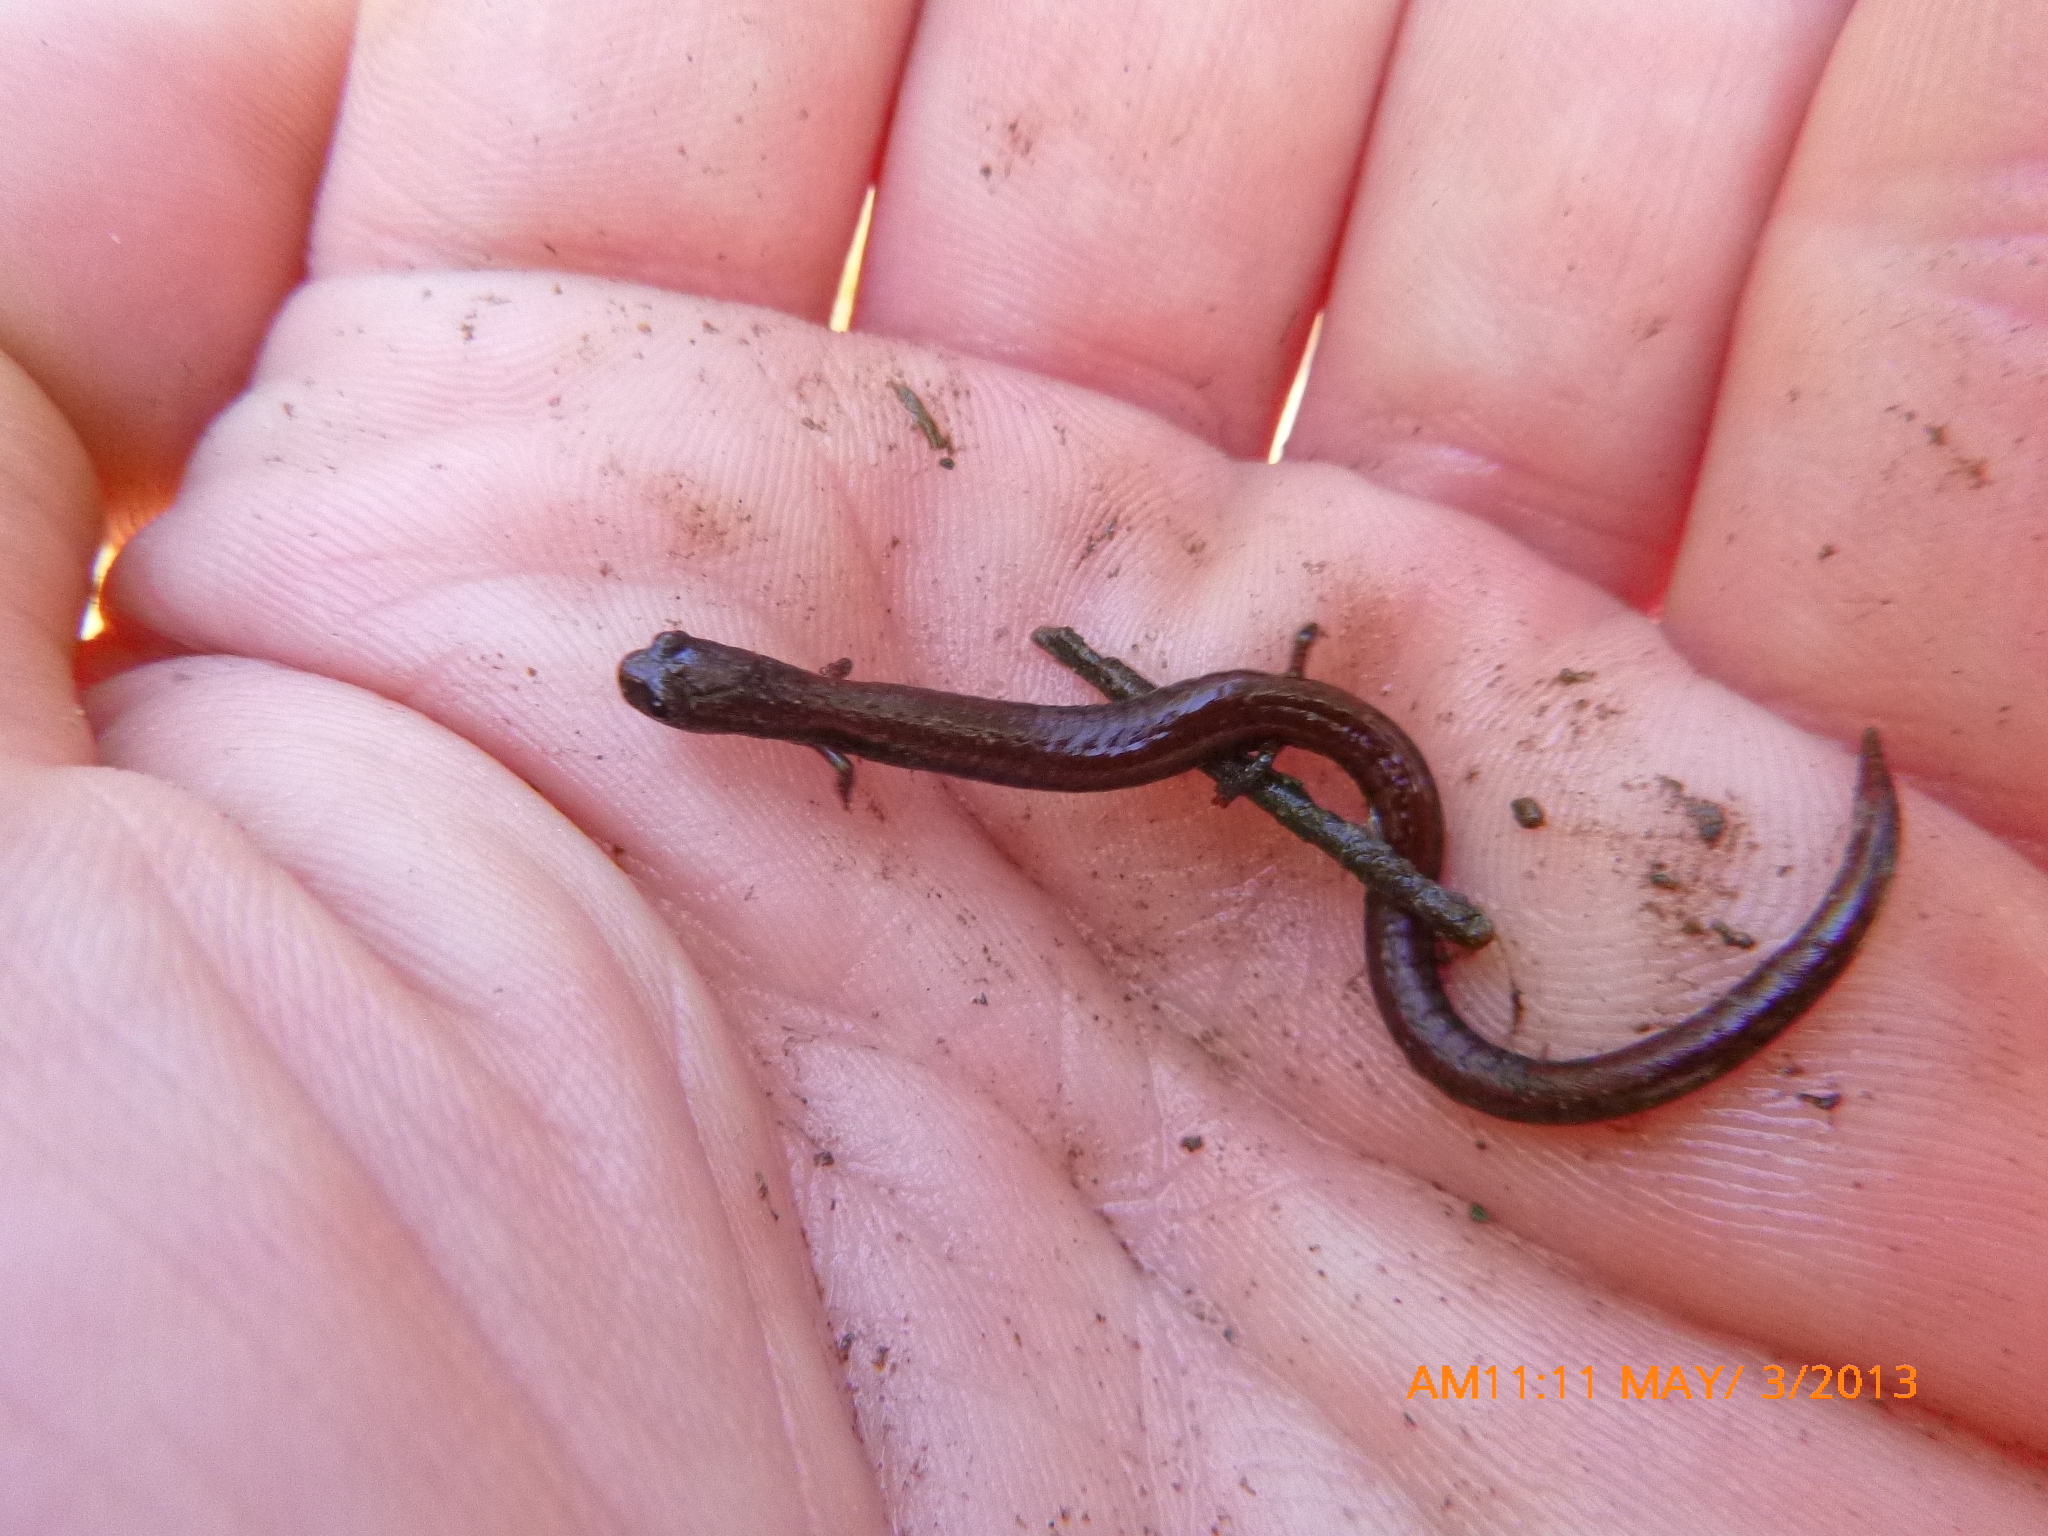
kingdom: Animalia
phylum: Chordata
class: Amphibia
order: Caudata
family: Plethodontidae
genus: Batrachoseps
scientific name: Batrachoseps nigriventris
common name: Black-bellied slender salamander
